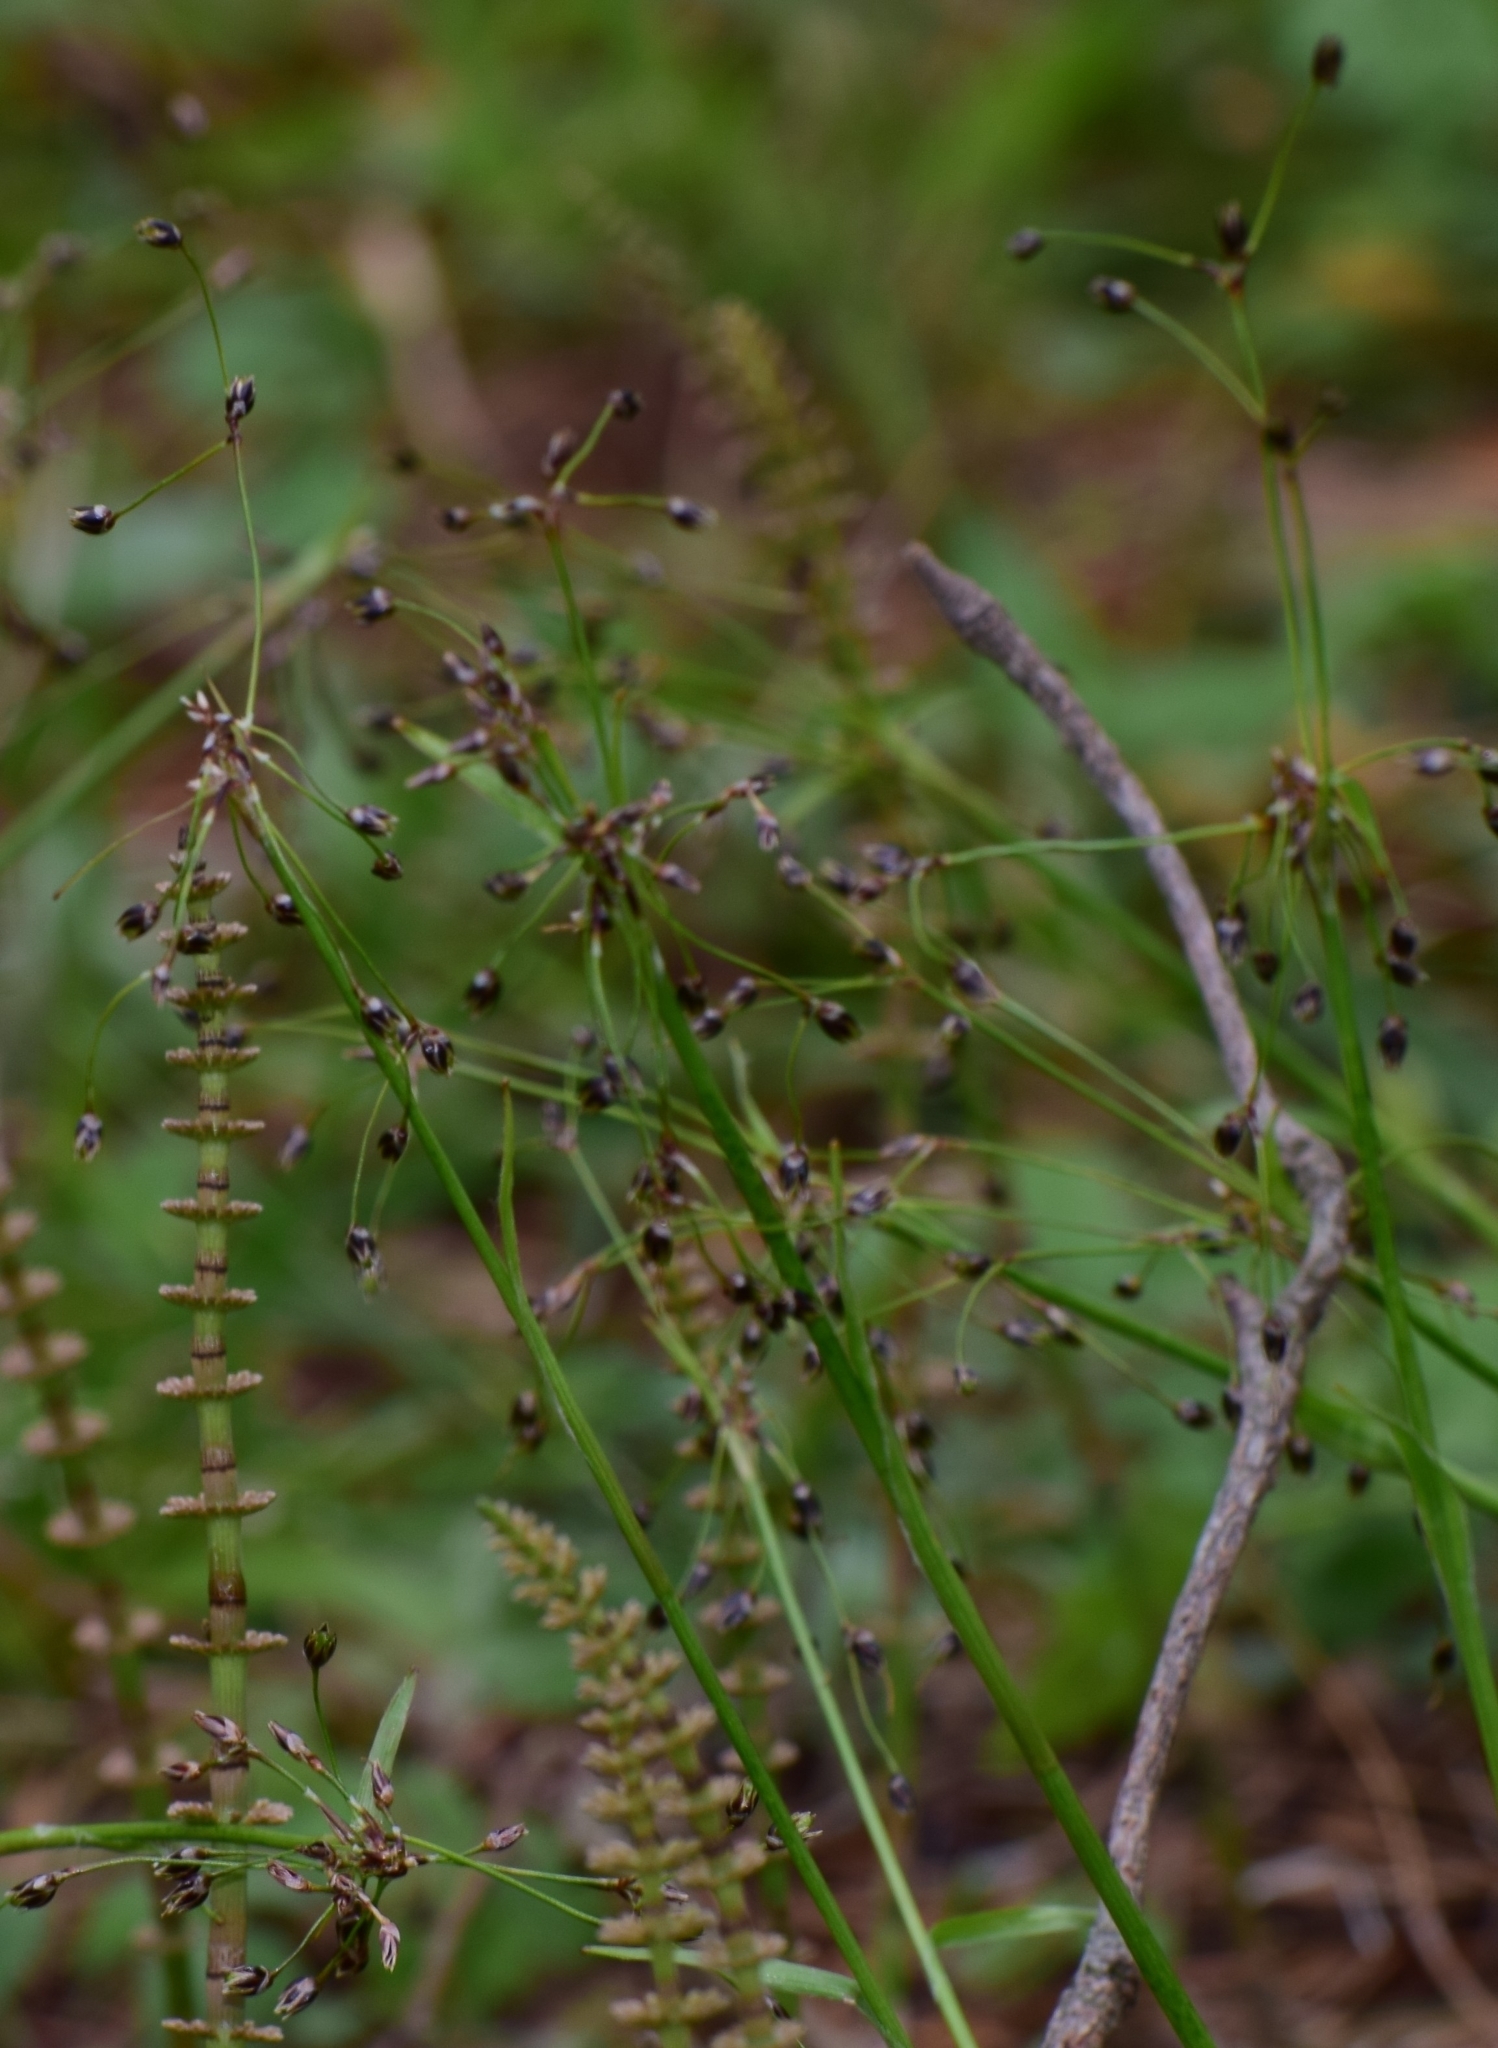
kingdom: Plantae
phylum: Tracheophyta
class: Liliopsida
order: Poales
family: Juncaceae
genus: Luzula
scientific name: Luzula pilosa
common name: Hairy wood-rush
